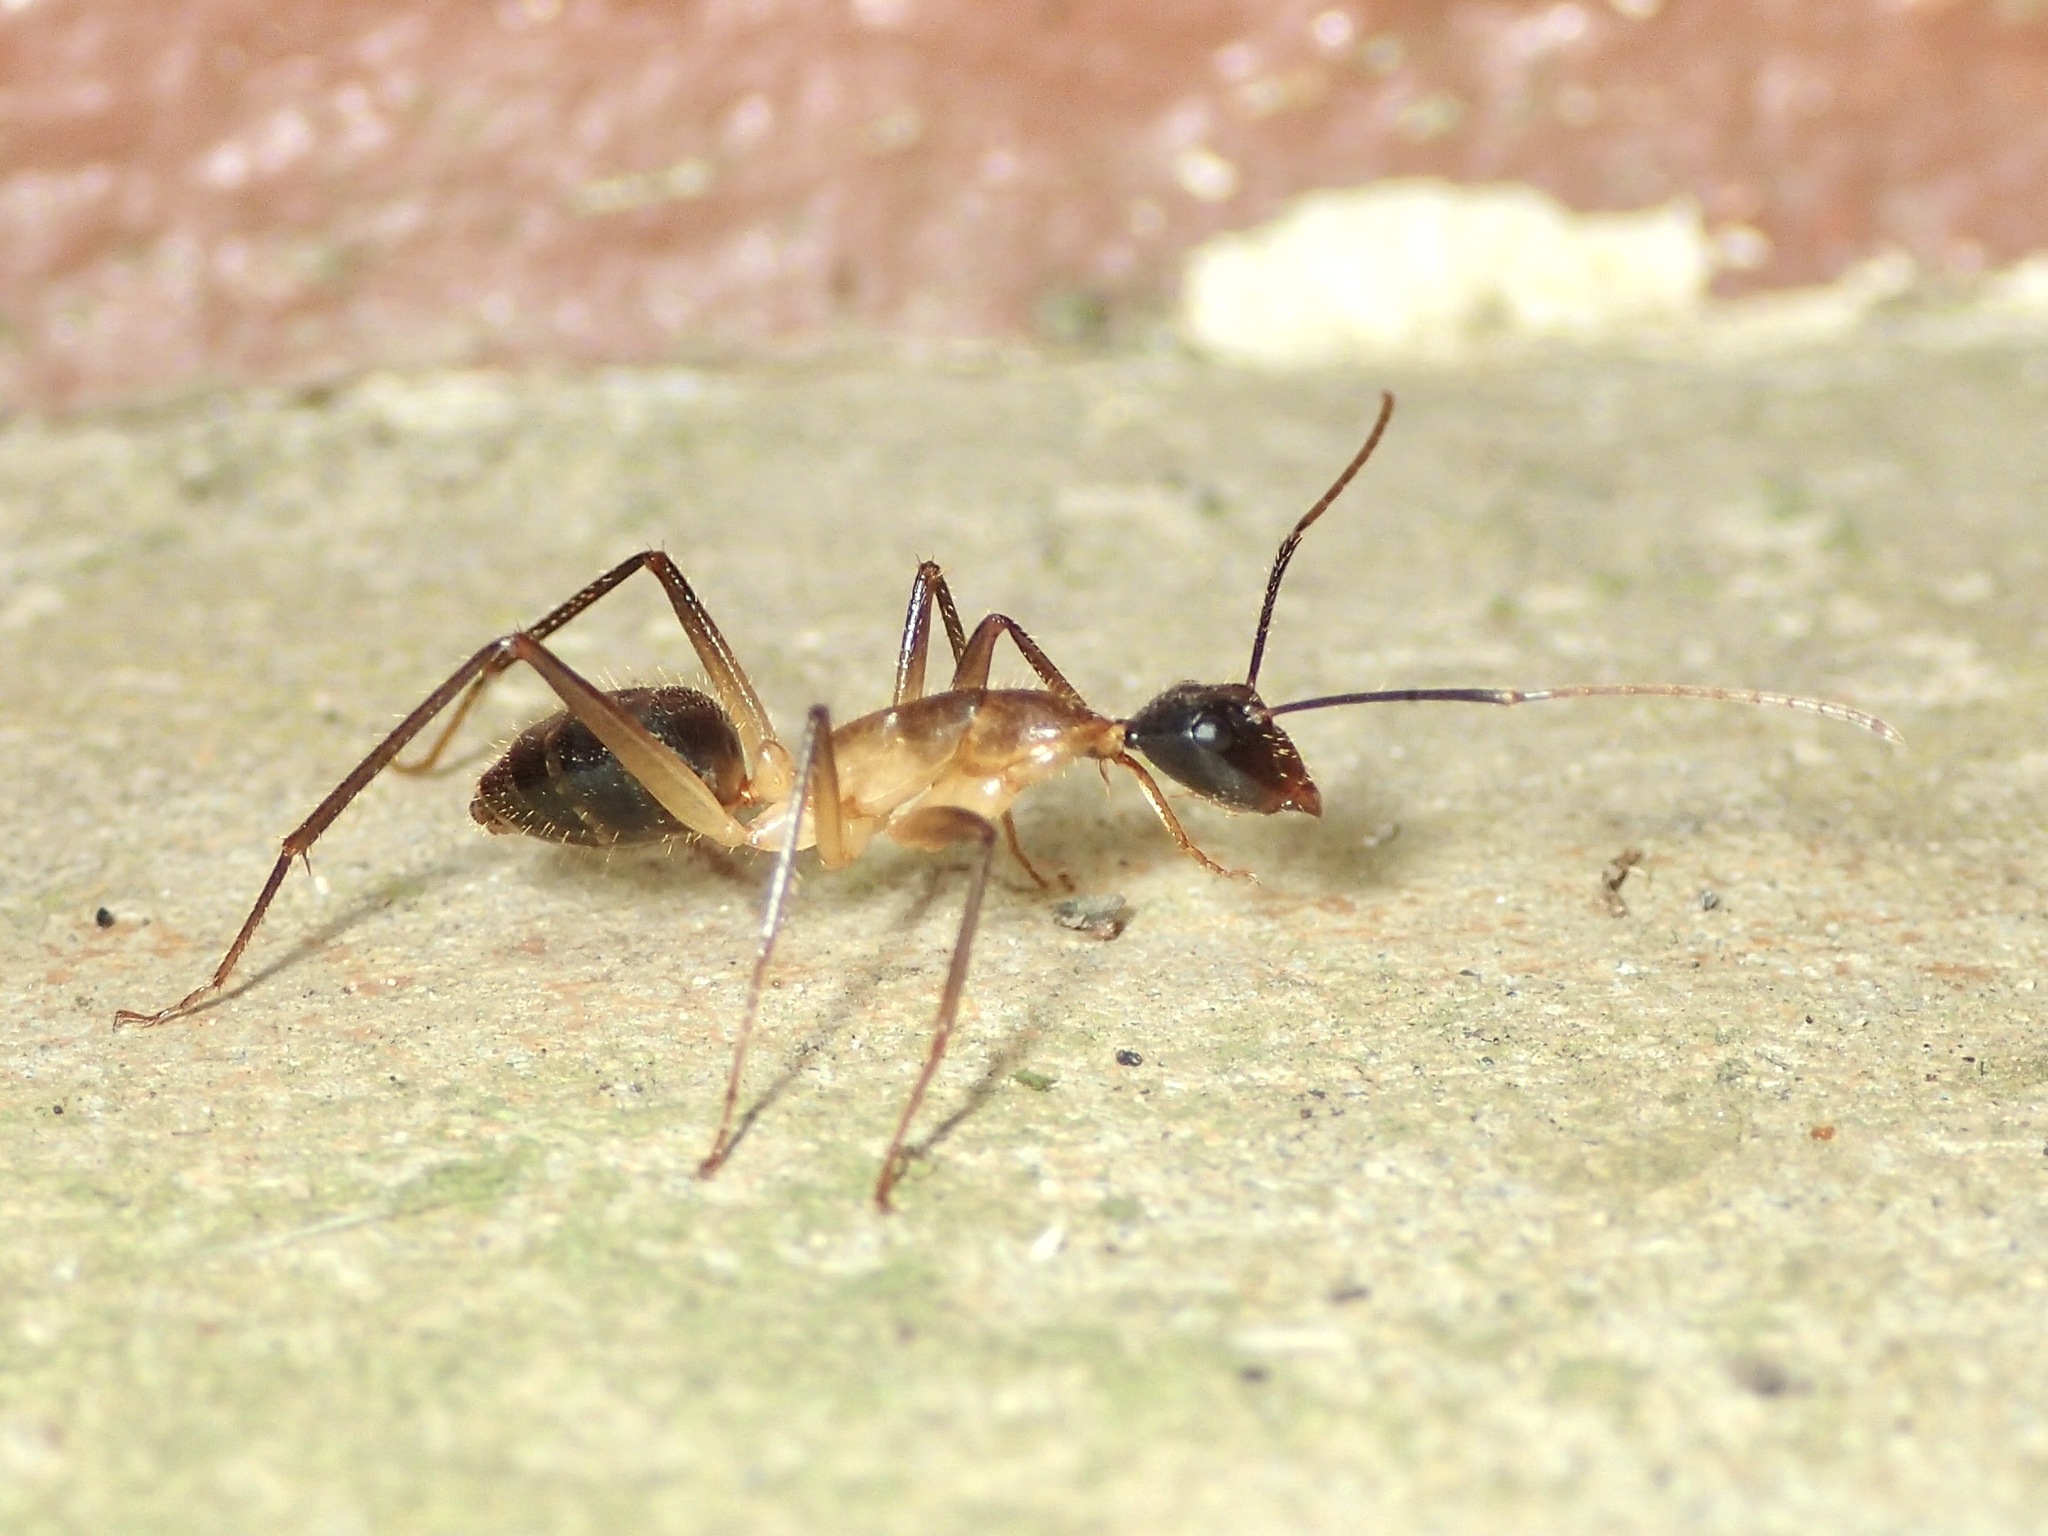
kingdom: Animalia
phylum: Arthropoda
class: Insecta
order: Hymenoptera
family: Formicidae
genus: Camponotus
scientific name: Camponotus
